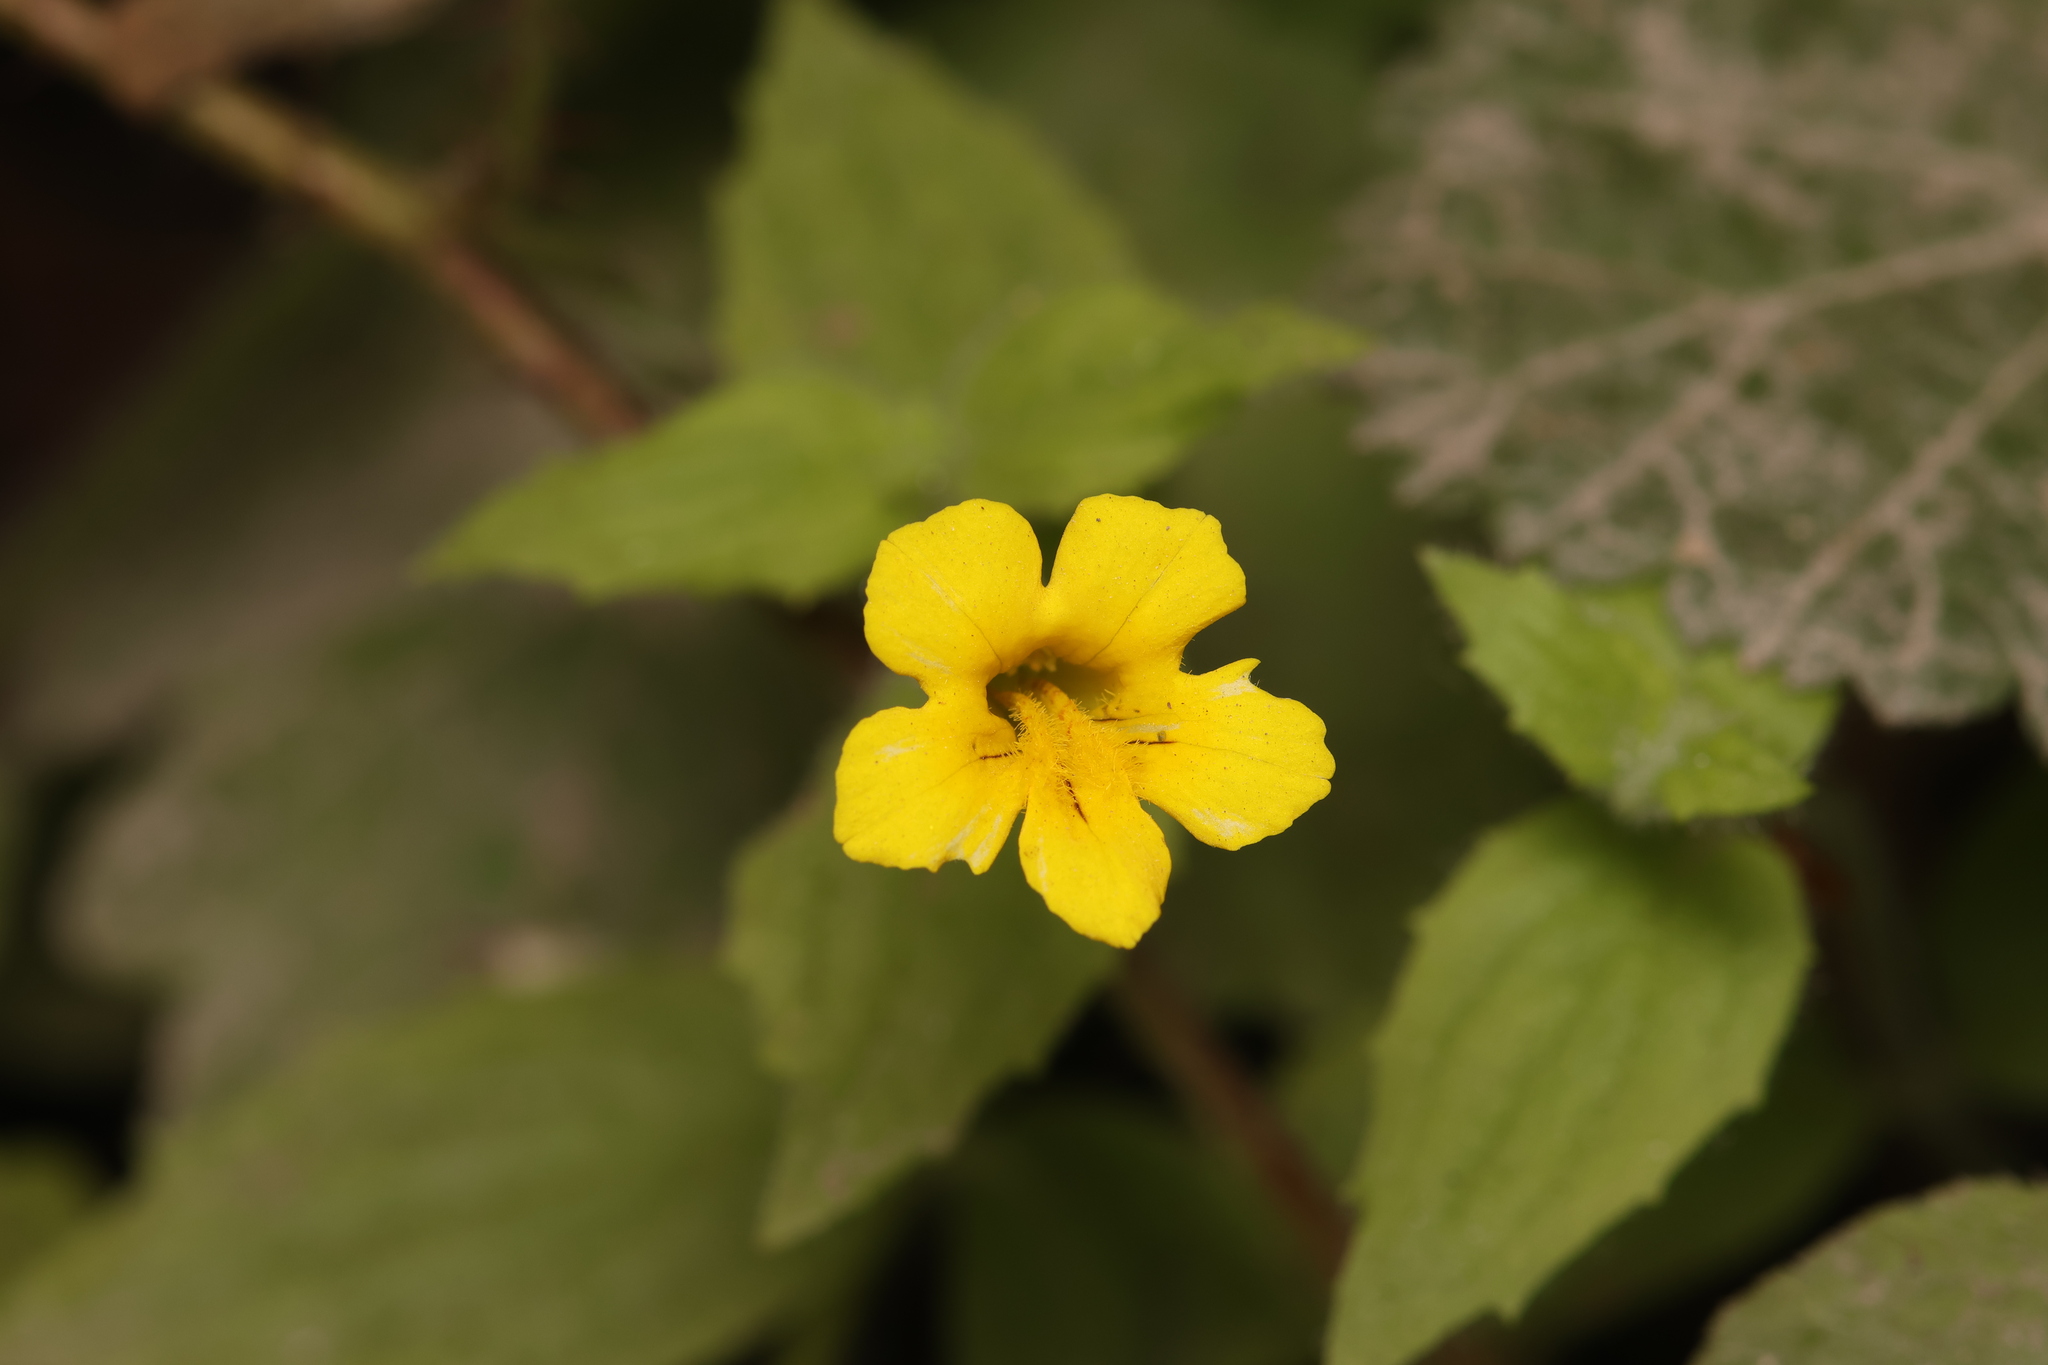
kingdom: Plantae
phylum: Tracheophyta
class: Magnoliopsida
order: Lamiales
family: Phrymaceae
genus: Erythranthe
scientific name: Erythranthe ptilota
